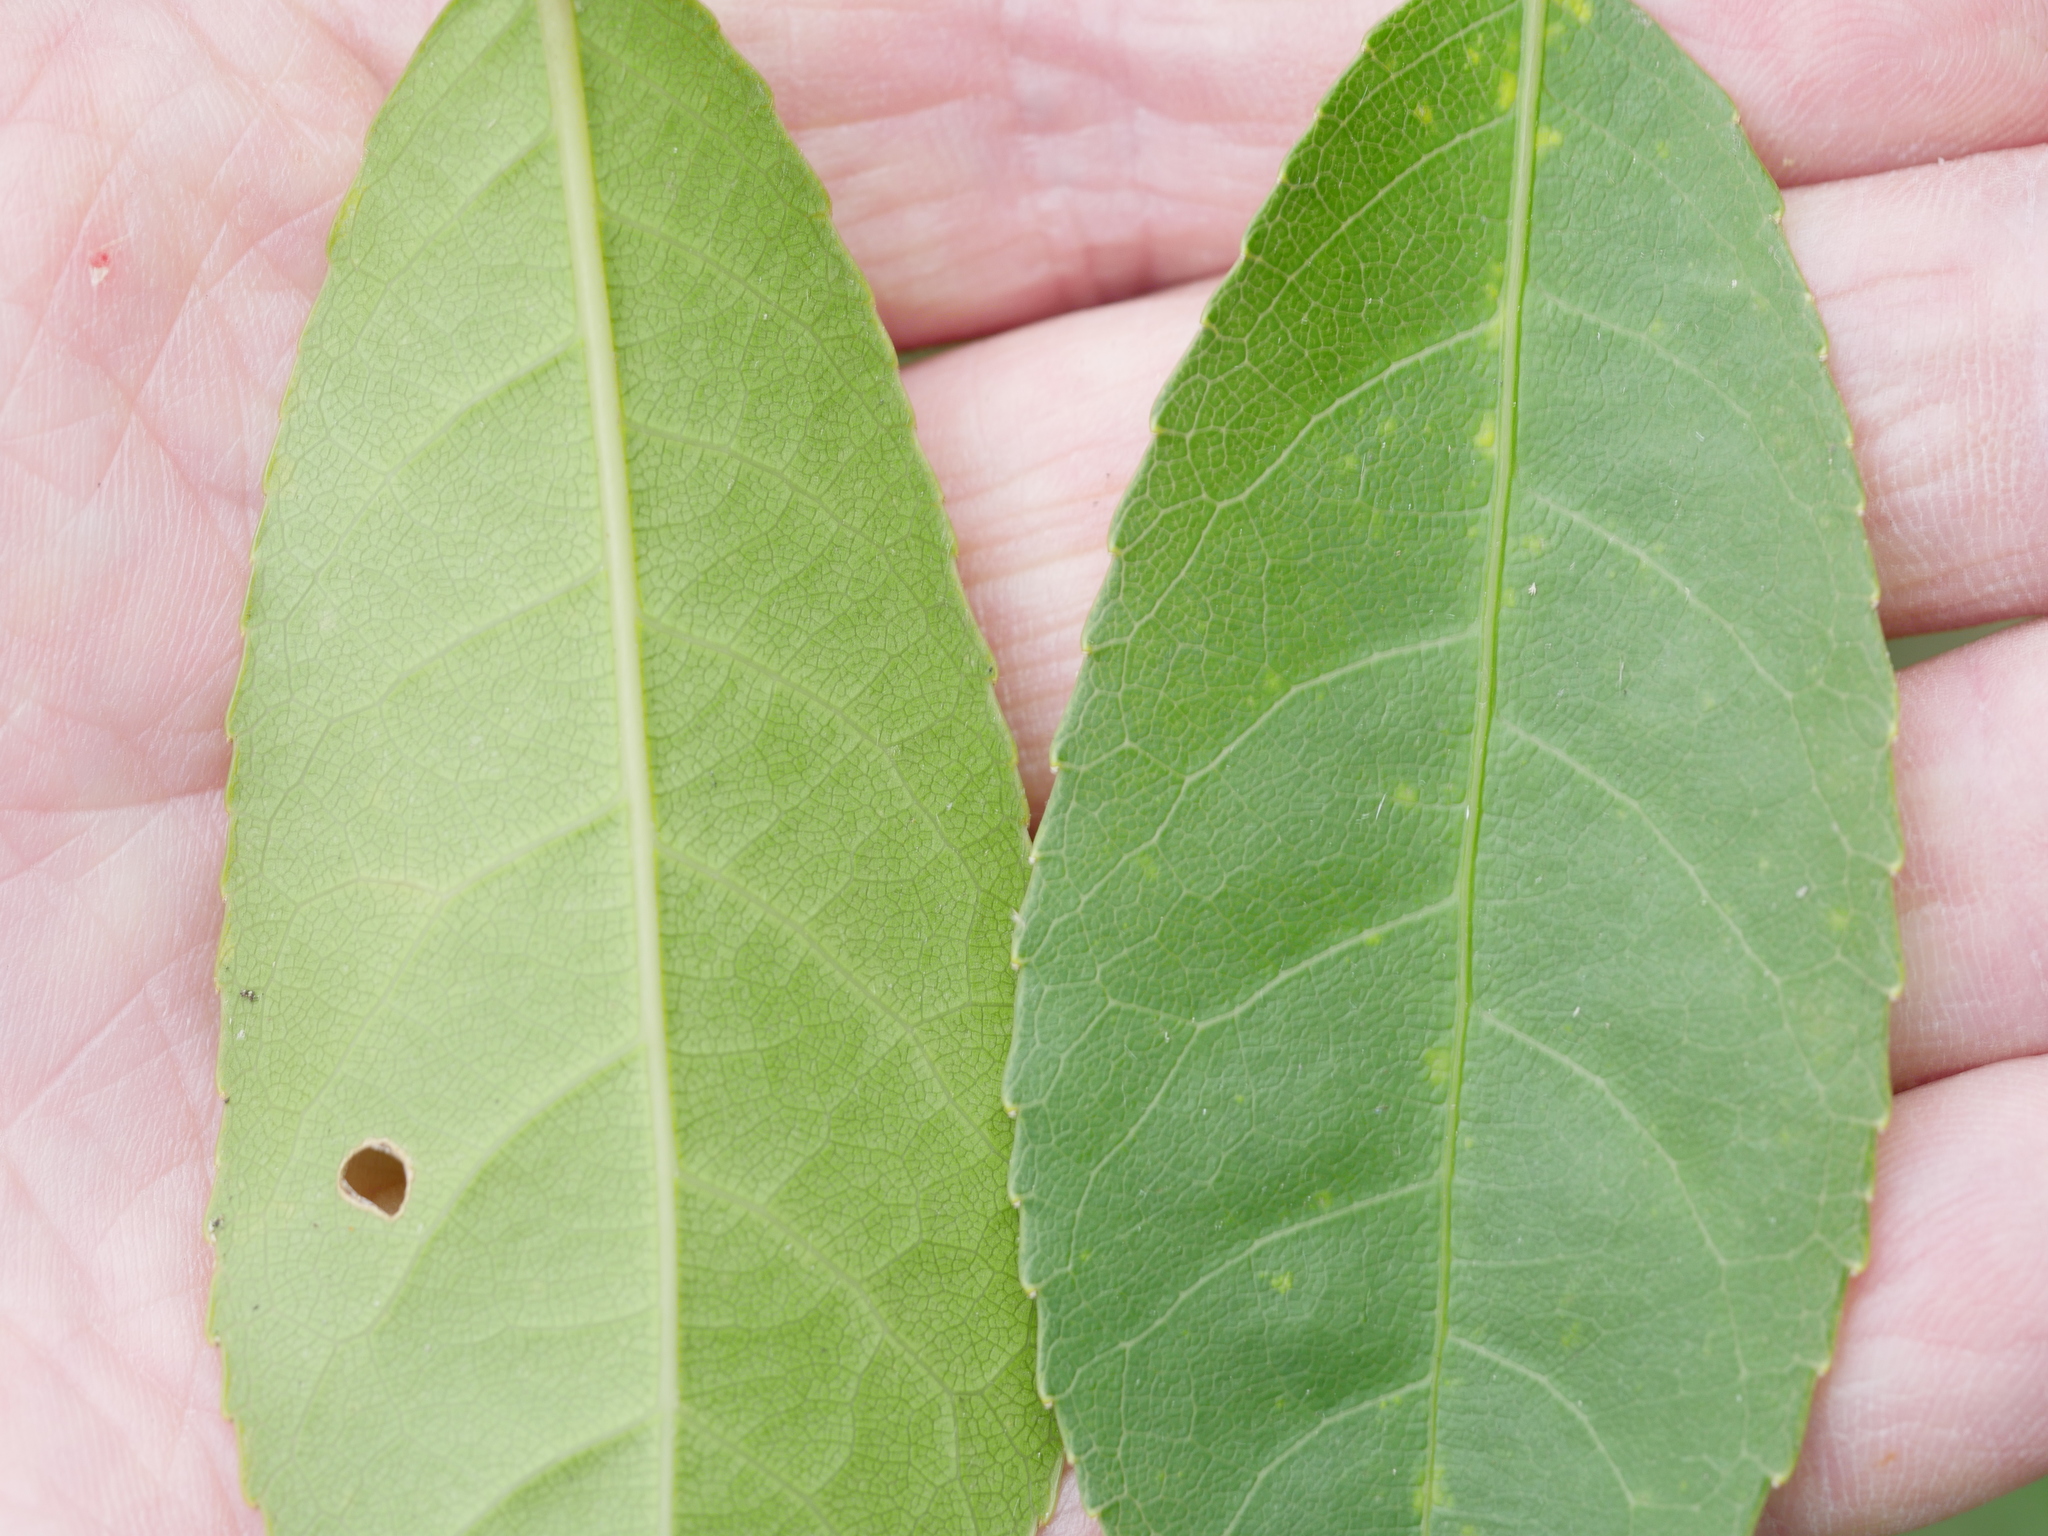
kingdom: Plantae
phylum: Tracheophyta
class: Magnoliopsida
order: Malpighiales
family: Violaceae
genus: Melicytus
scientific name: Melicytus ramiflorus
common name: Mahoe
